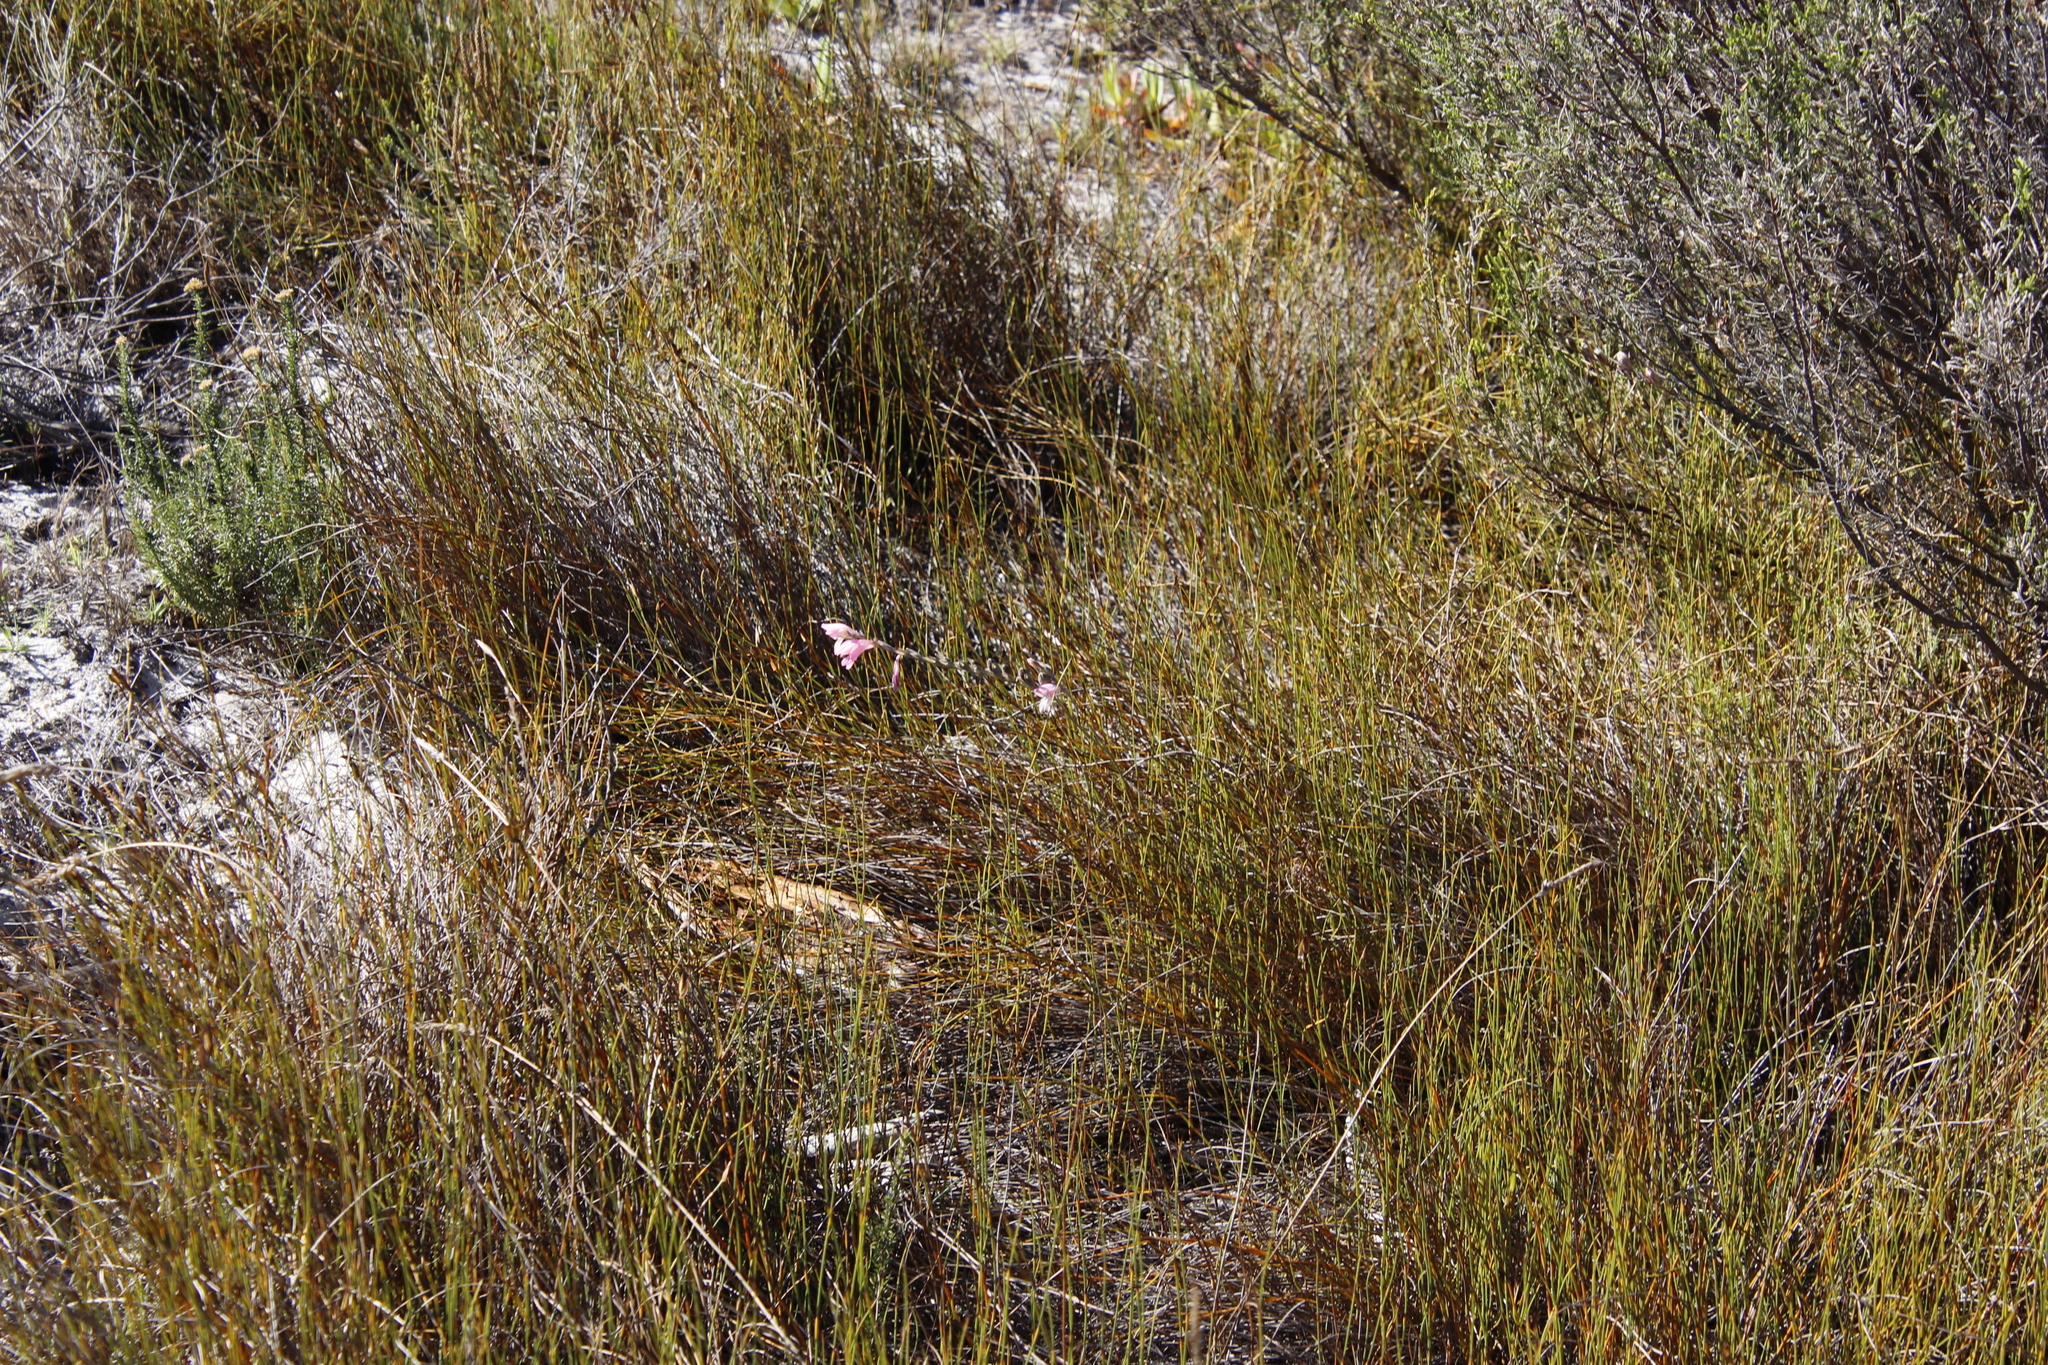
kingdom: Plantae
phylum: Tracheophyta
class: Liliopsida
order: Asparagales
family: Iridaceae
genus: Gladiolus
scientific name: Gladiolus brevifolius
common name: March pypie
